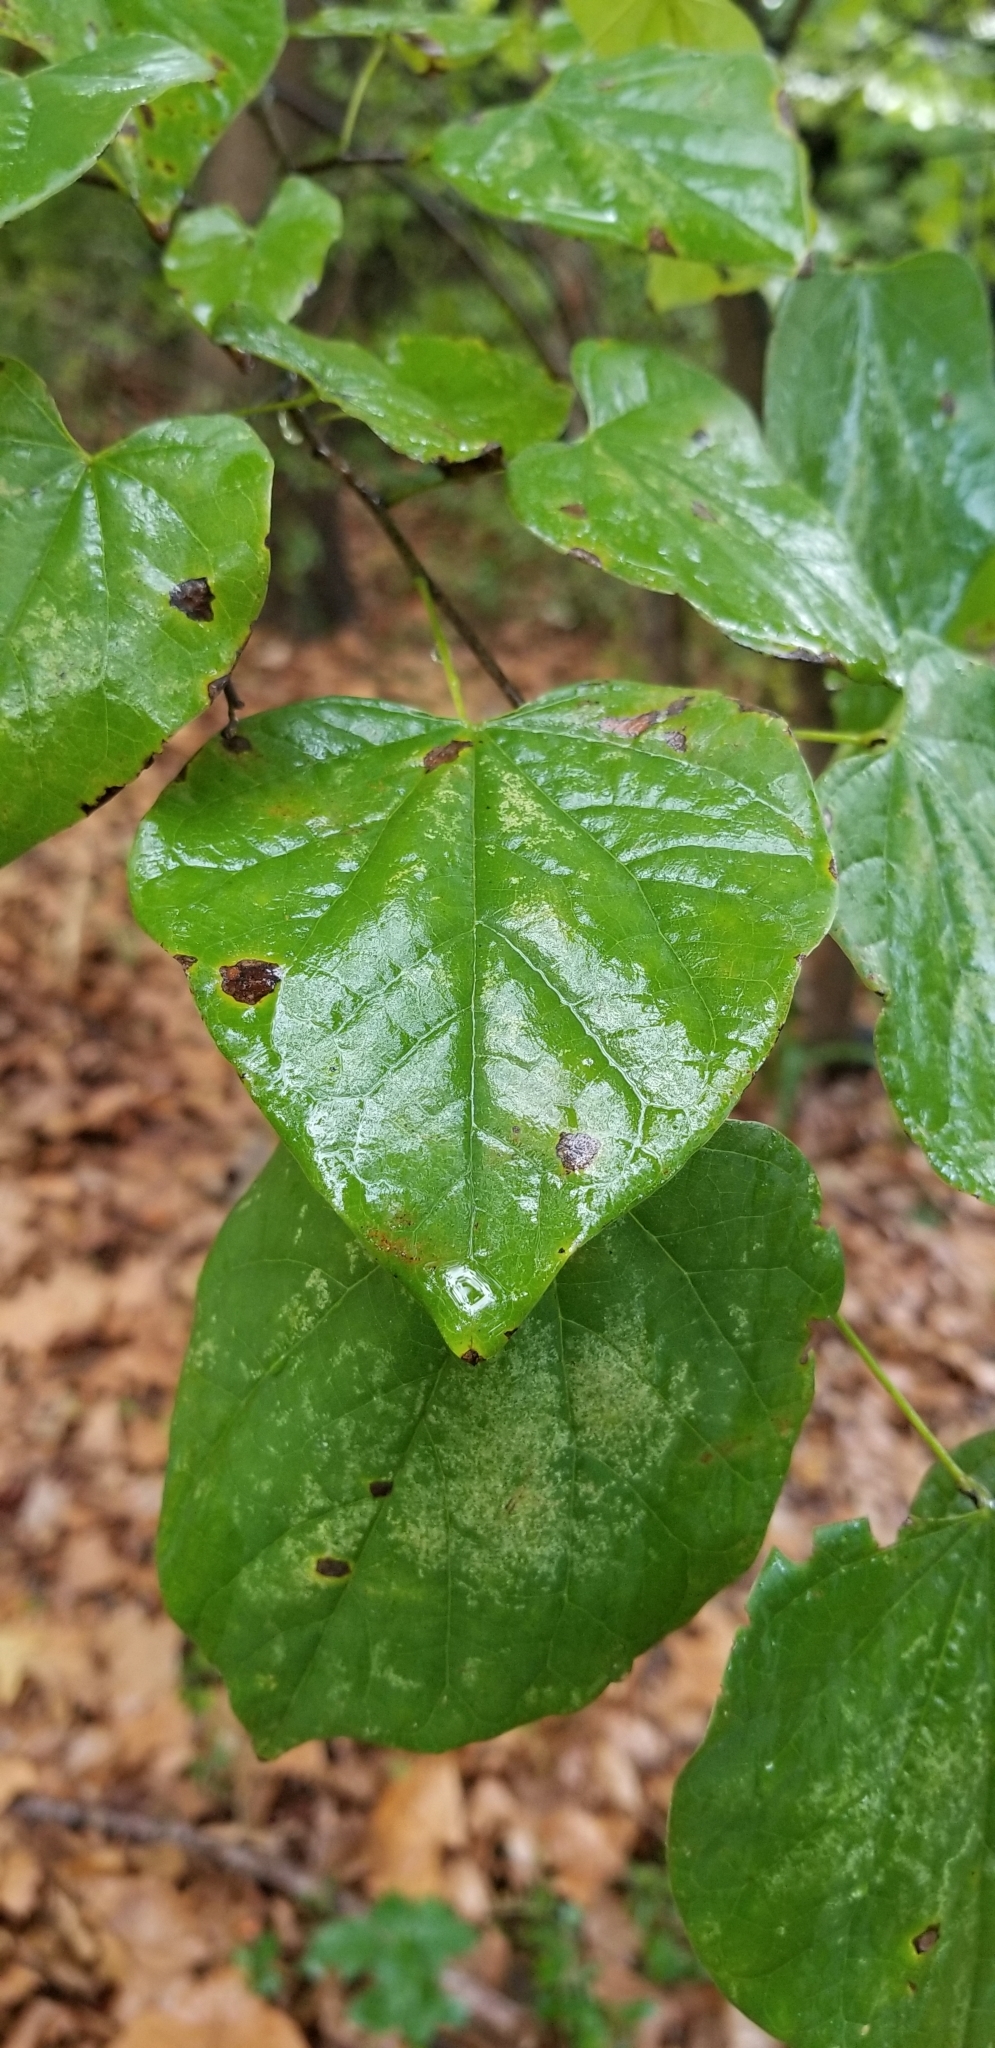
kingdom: Plantae
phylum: Tracheophyta
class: Magnoliopsida
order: Fabales
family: Fabaceae
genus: Cercis
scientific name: Cercis canadensis
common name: Eastern redbud
